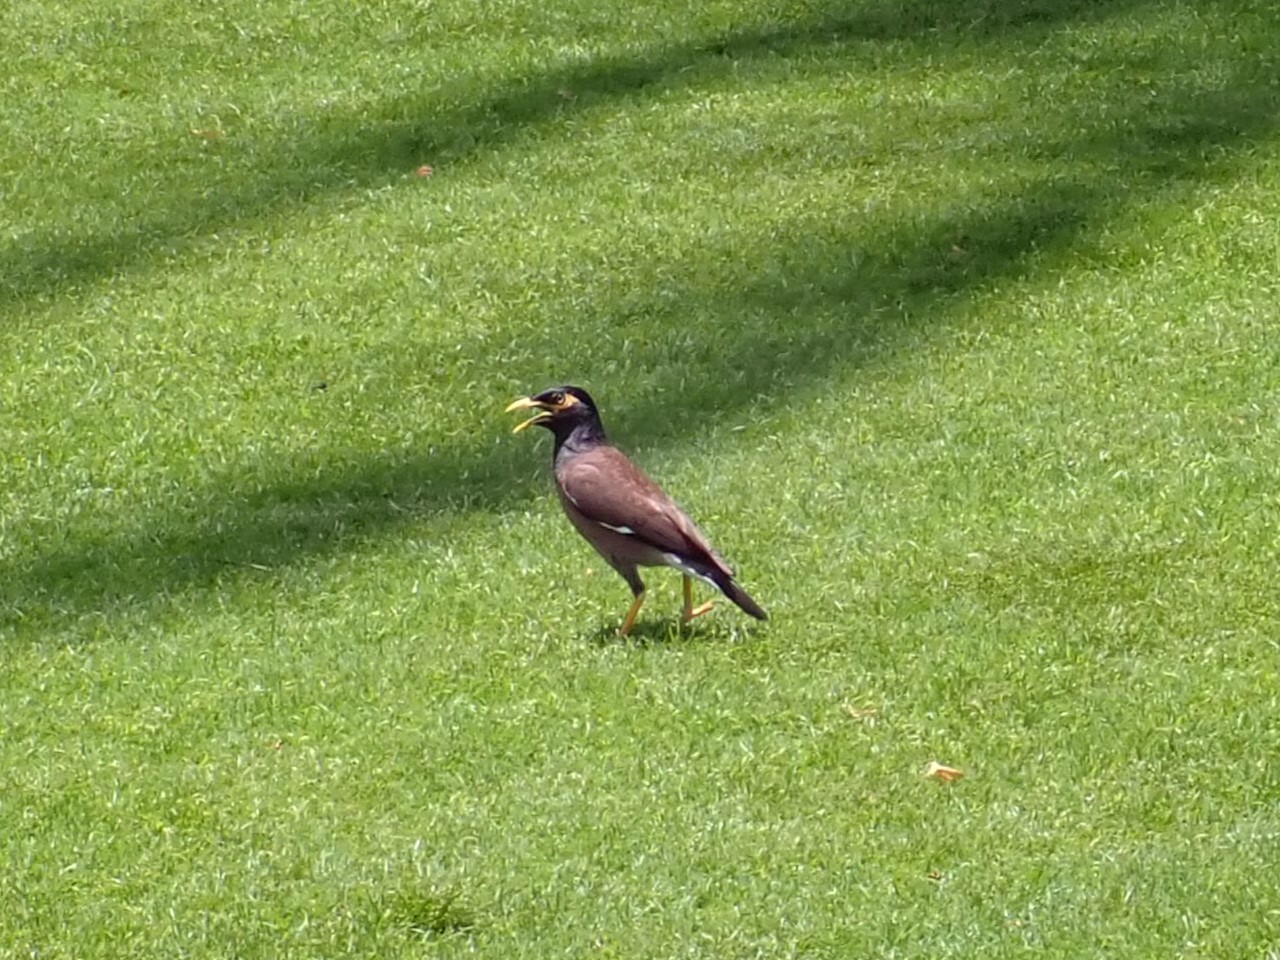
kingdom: Animalia
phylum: Chordata
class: Aves
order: Passeriformes
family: Sturnidae
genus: Acridotheres
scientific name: Acridotheres tristis
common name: Common myna
